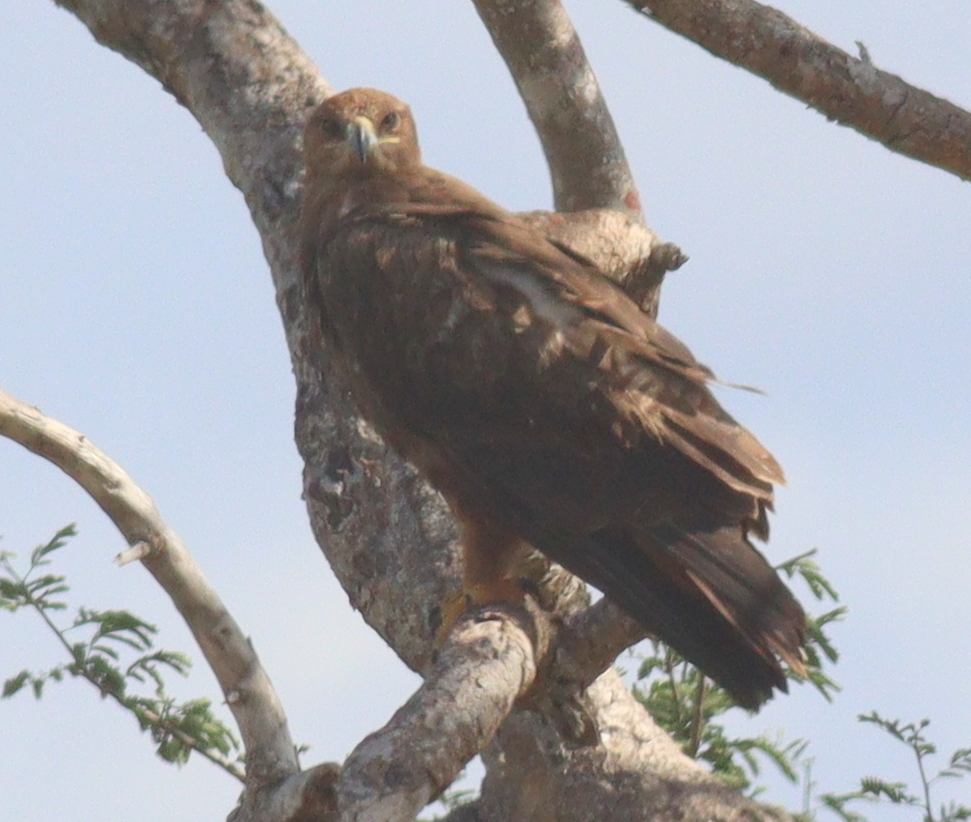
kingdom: Animalia
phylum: Chordata
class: Aves
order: Accipitriformes
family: Accipitridae
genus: Aquila
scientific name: Aquila nipalensis
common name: Steppe eagle
